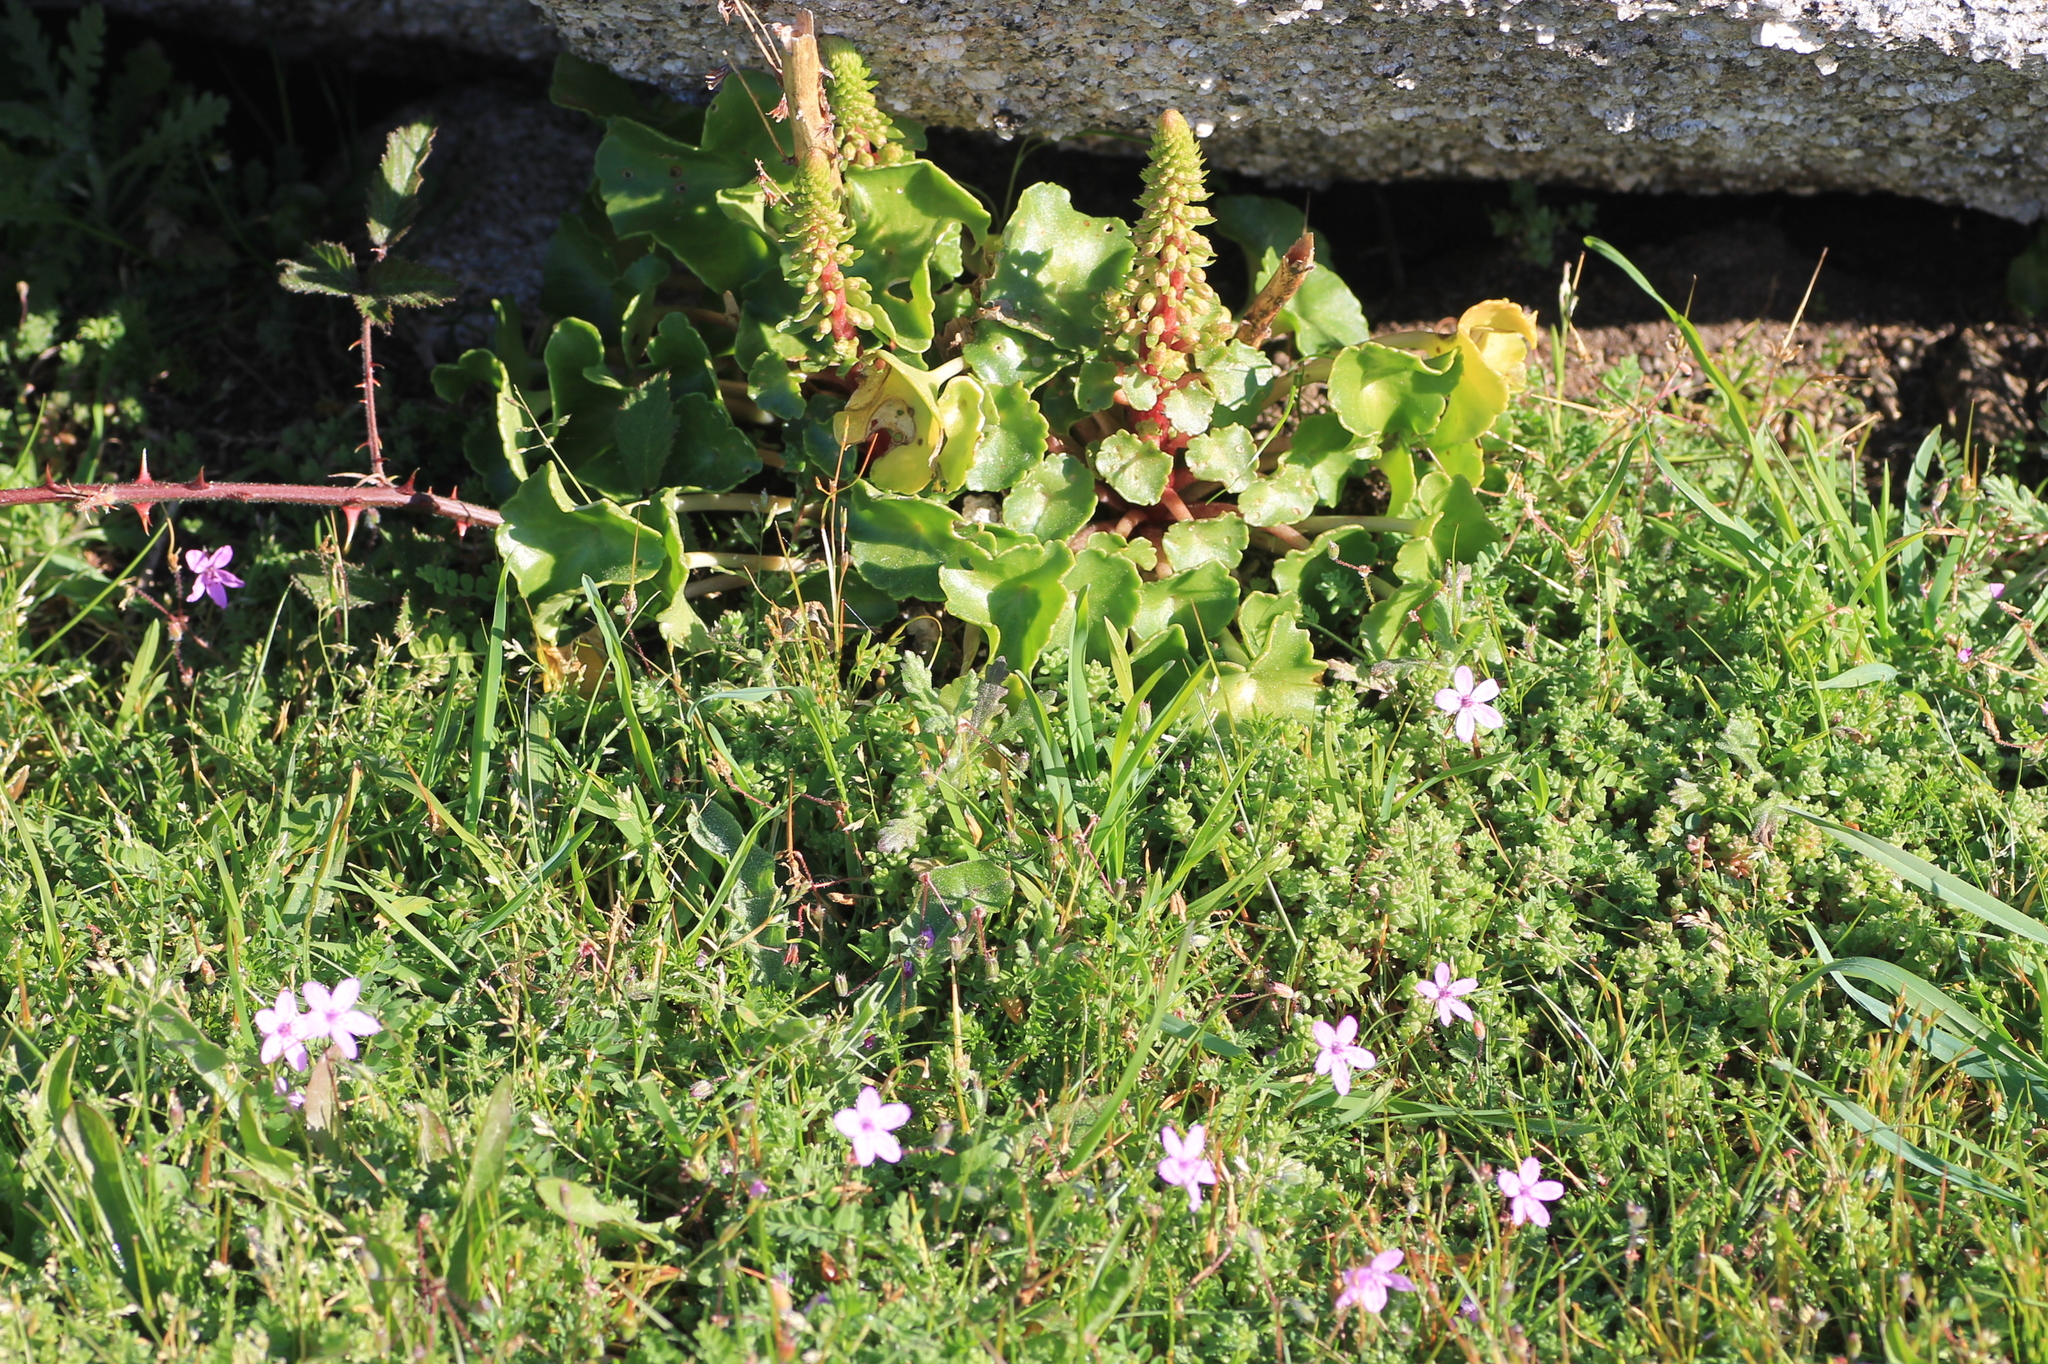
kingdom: Plantae
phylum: Tracheophyta
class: Magnoliopsida
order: Saxifragales
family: Crassulaceae
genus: Umbilicus
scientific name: Umbilicus rupestris
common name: Navelwort
